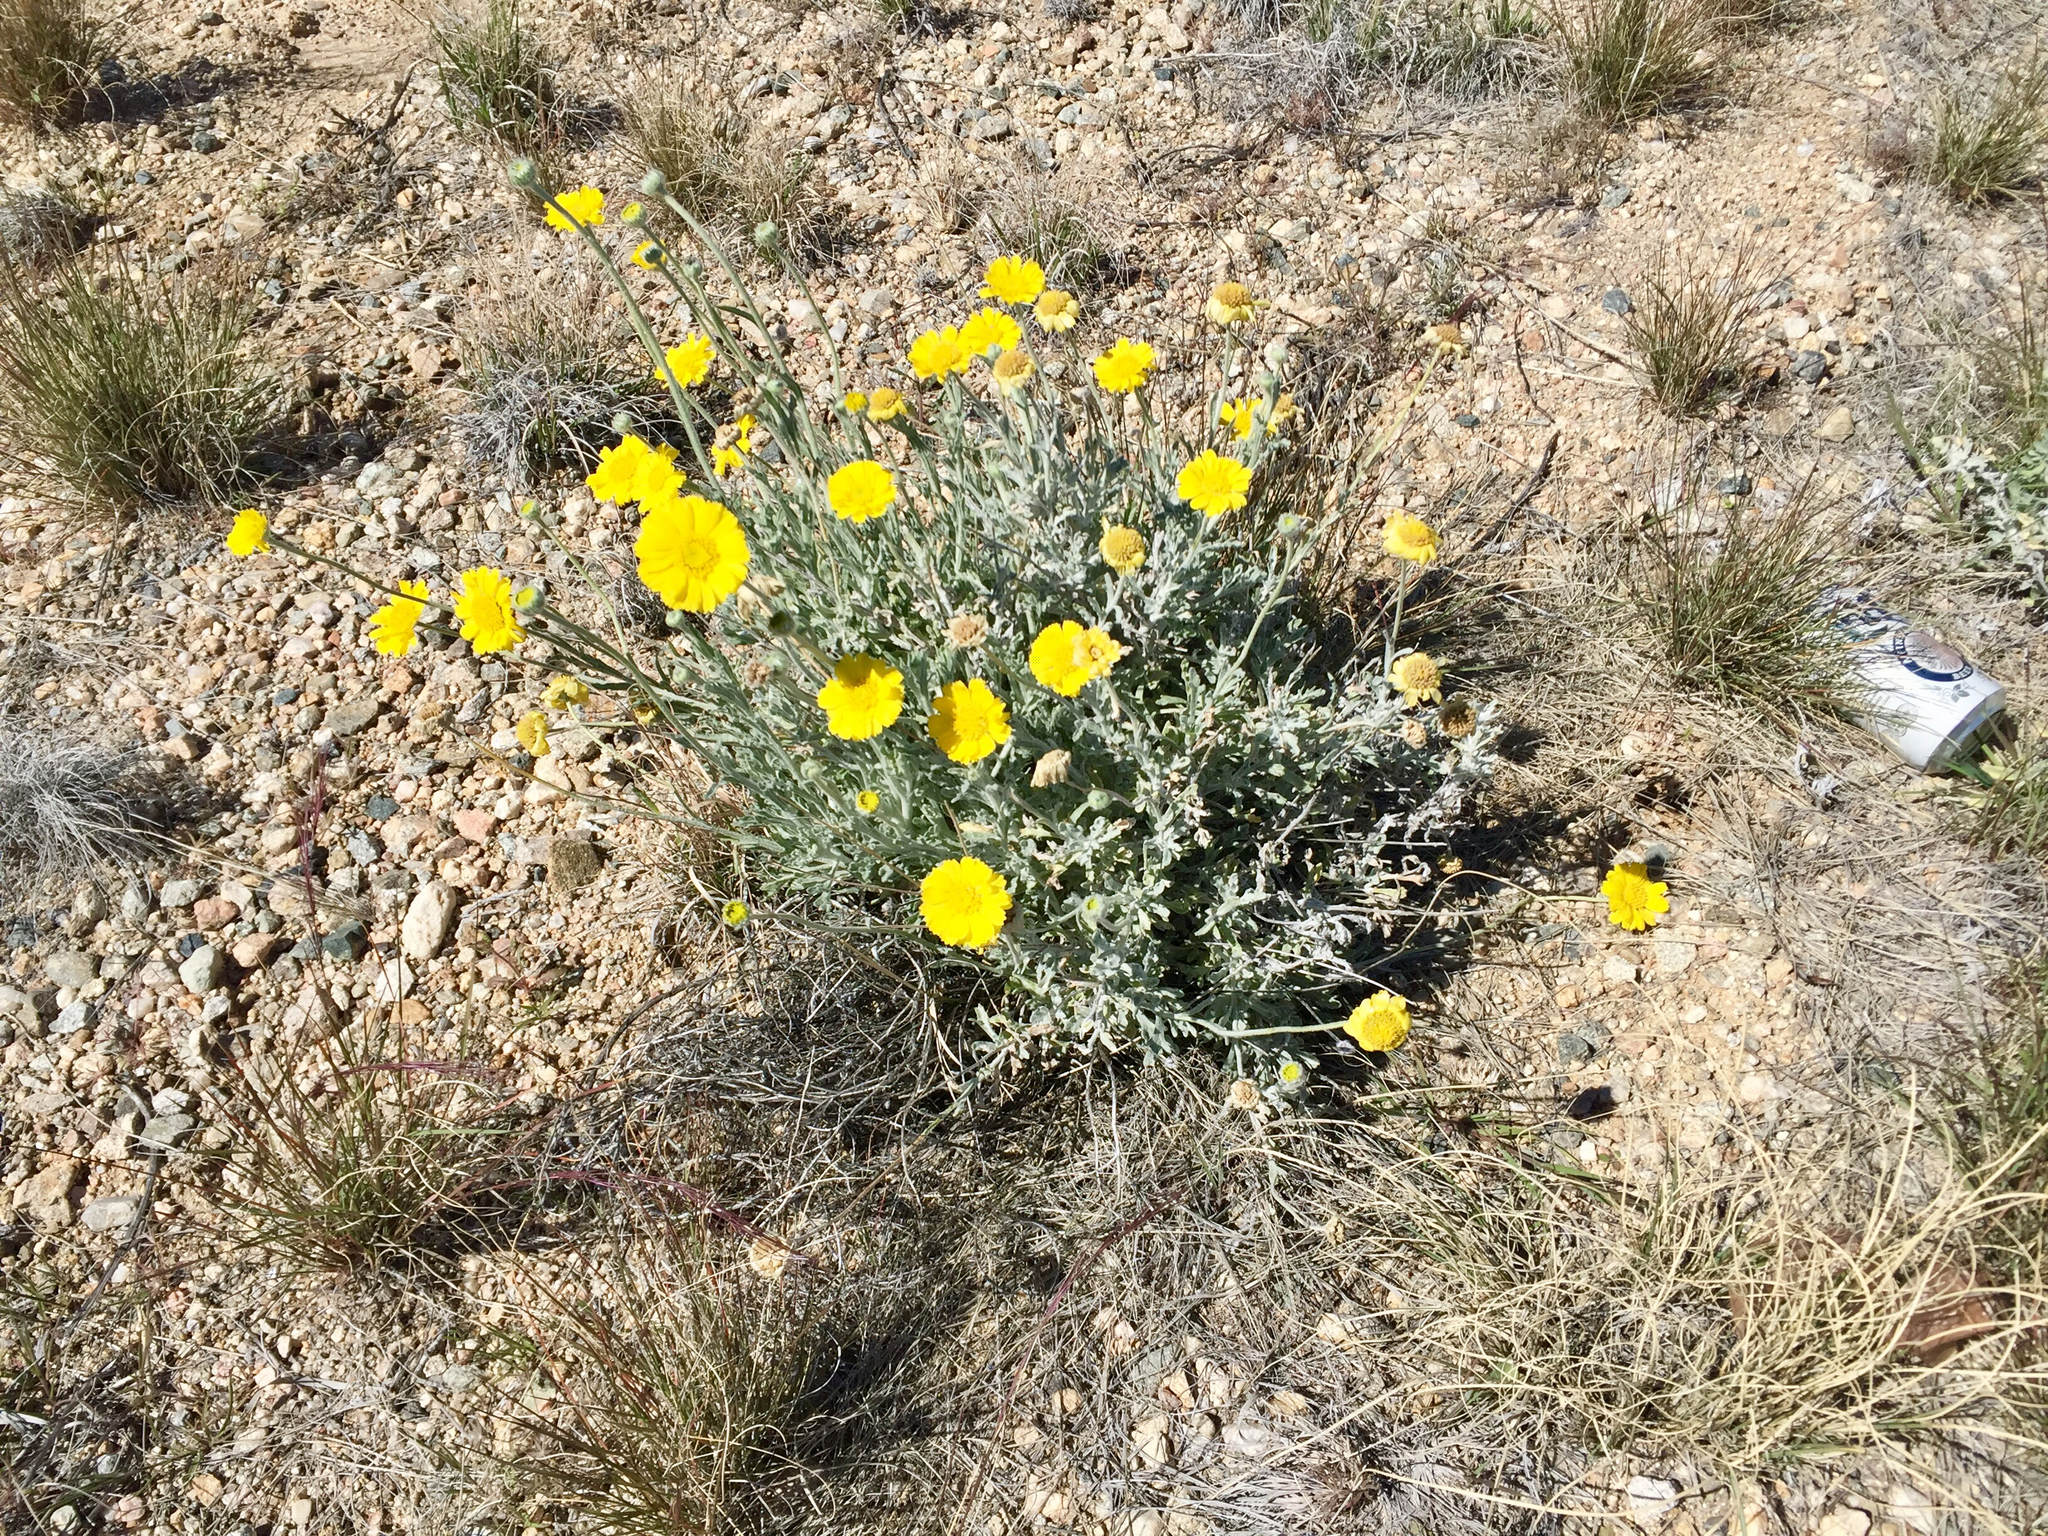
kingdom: Plantae
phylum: Tracheophyta
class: Magnoliopsida
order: Asterales
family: Asteraceae
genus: Baileya
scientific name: Baileya multiradiata
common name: Desert-marigold
